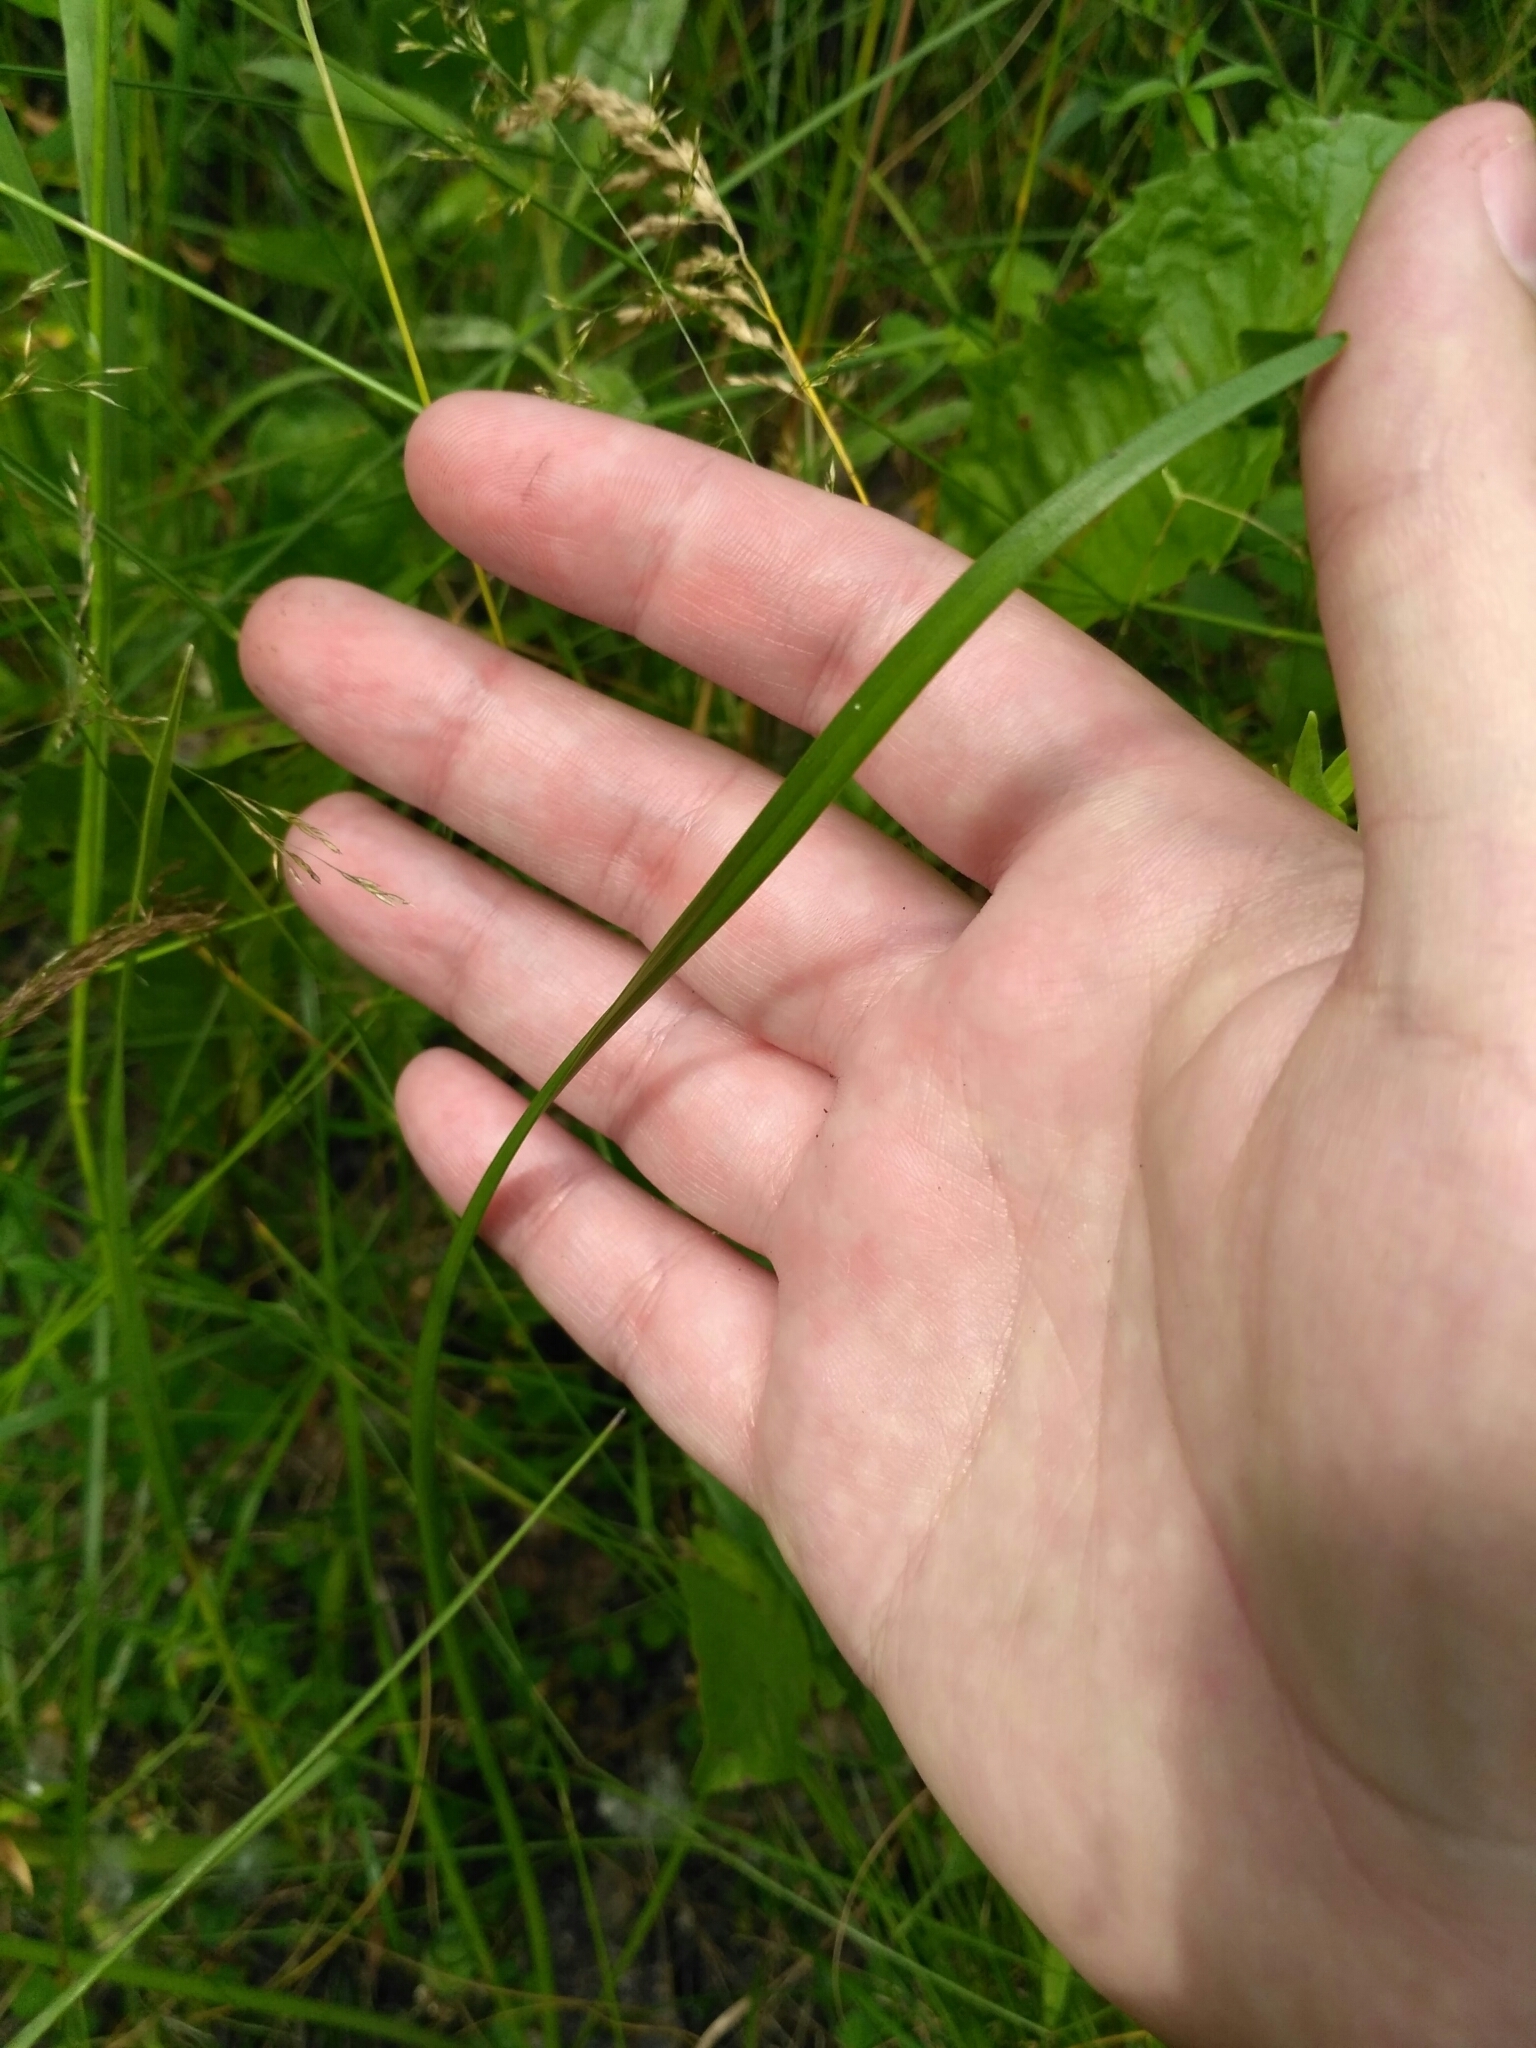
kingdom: Plantae
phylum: Tracheophyta
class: Liliopsida
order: Asparagales
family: Amaryllidaceae
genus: Allium
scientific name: Allium angulosum
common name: Mouse garlic
